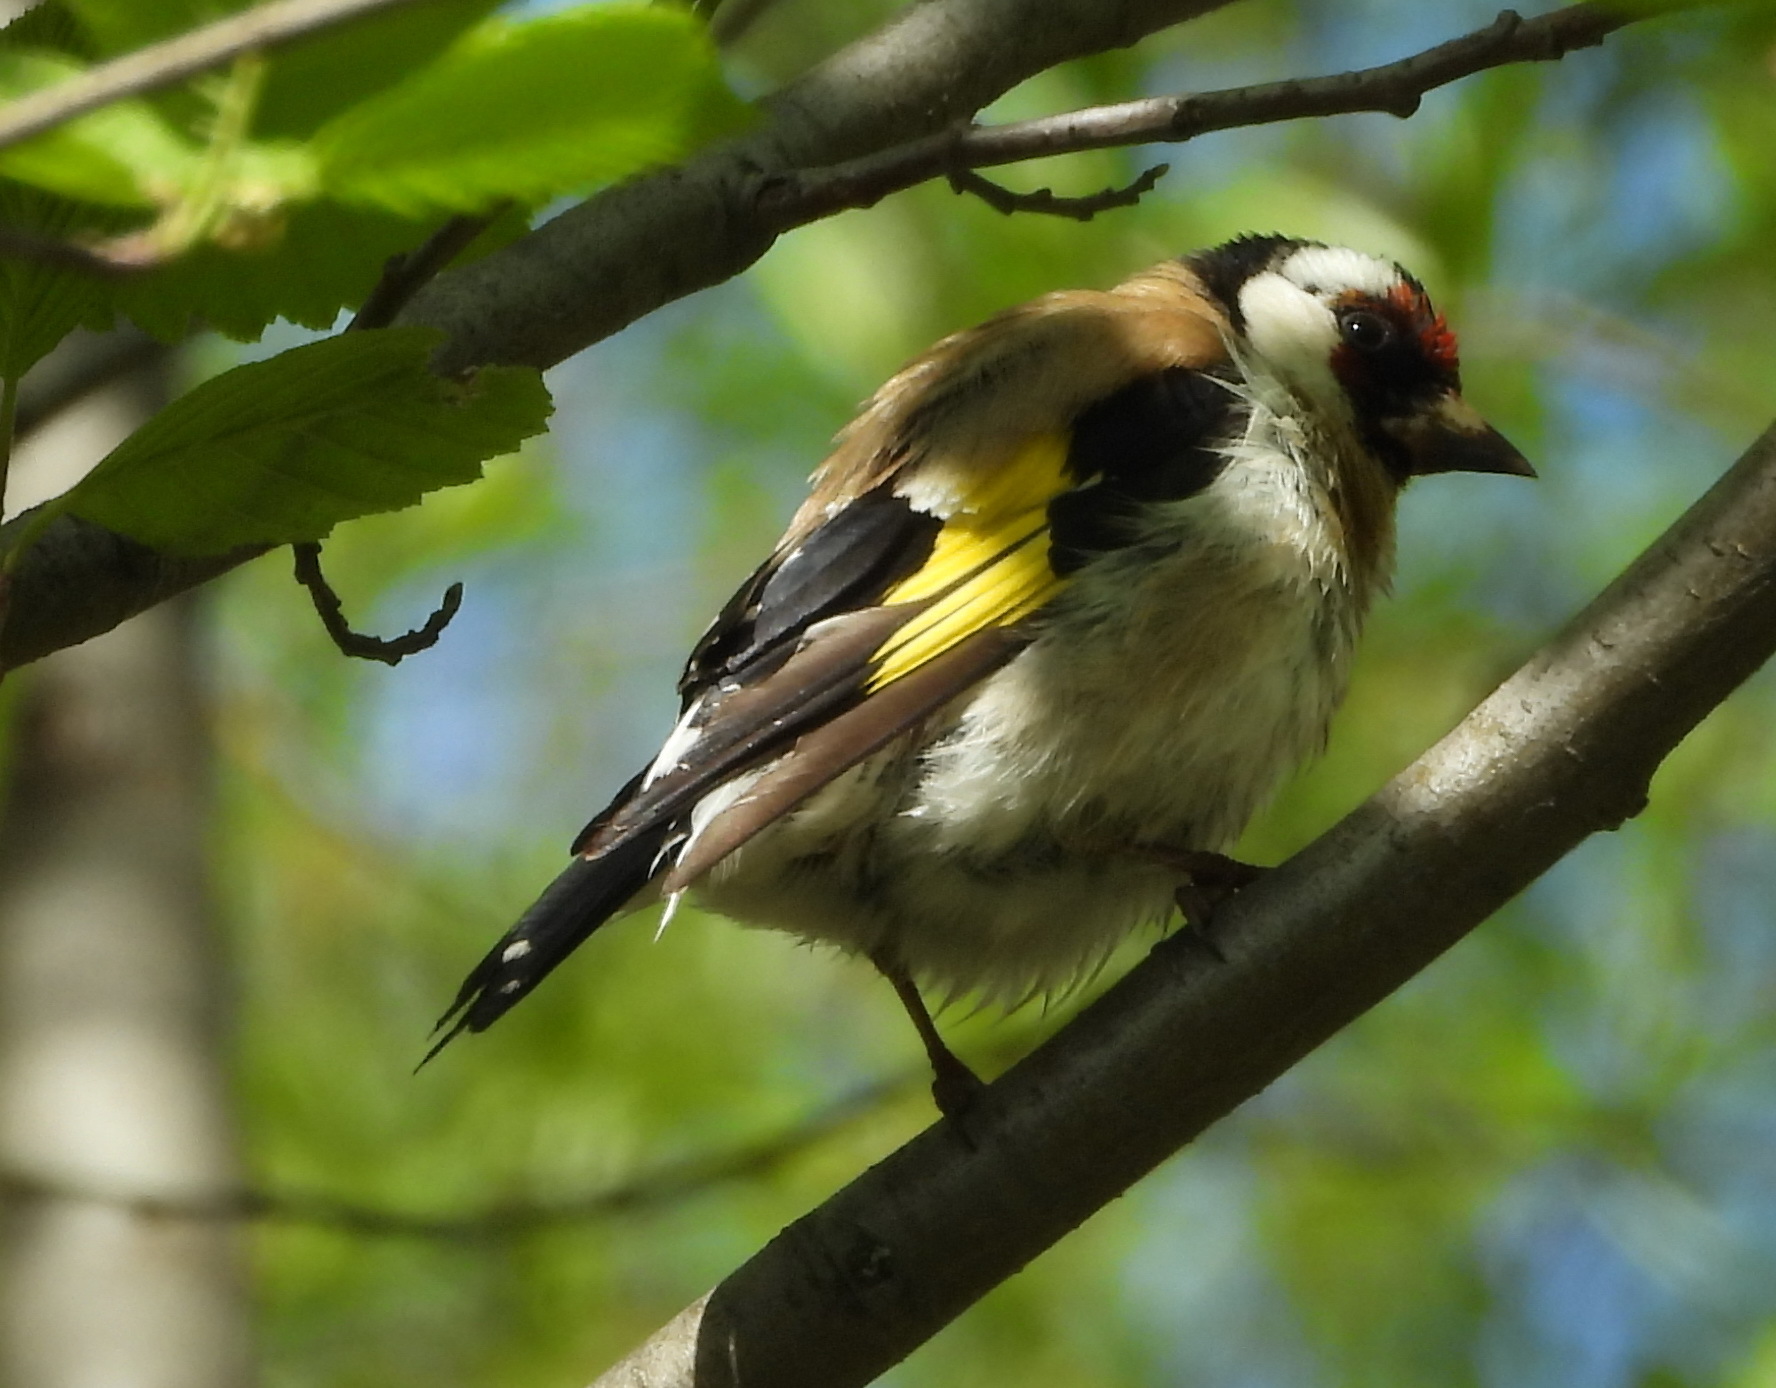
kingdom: Animalia
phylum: Chordata
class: Aves
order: Passeriformes
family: Fringillidae
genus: Carduelis
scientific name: Carduelis carduelis
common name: European goldfinch
